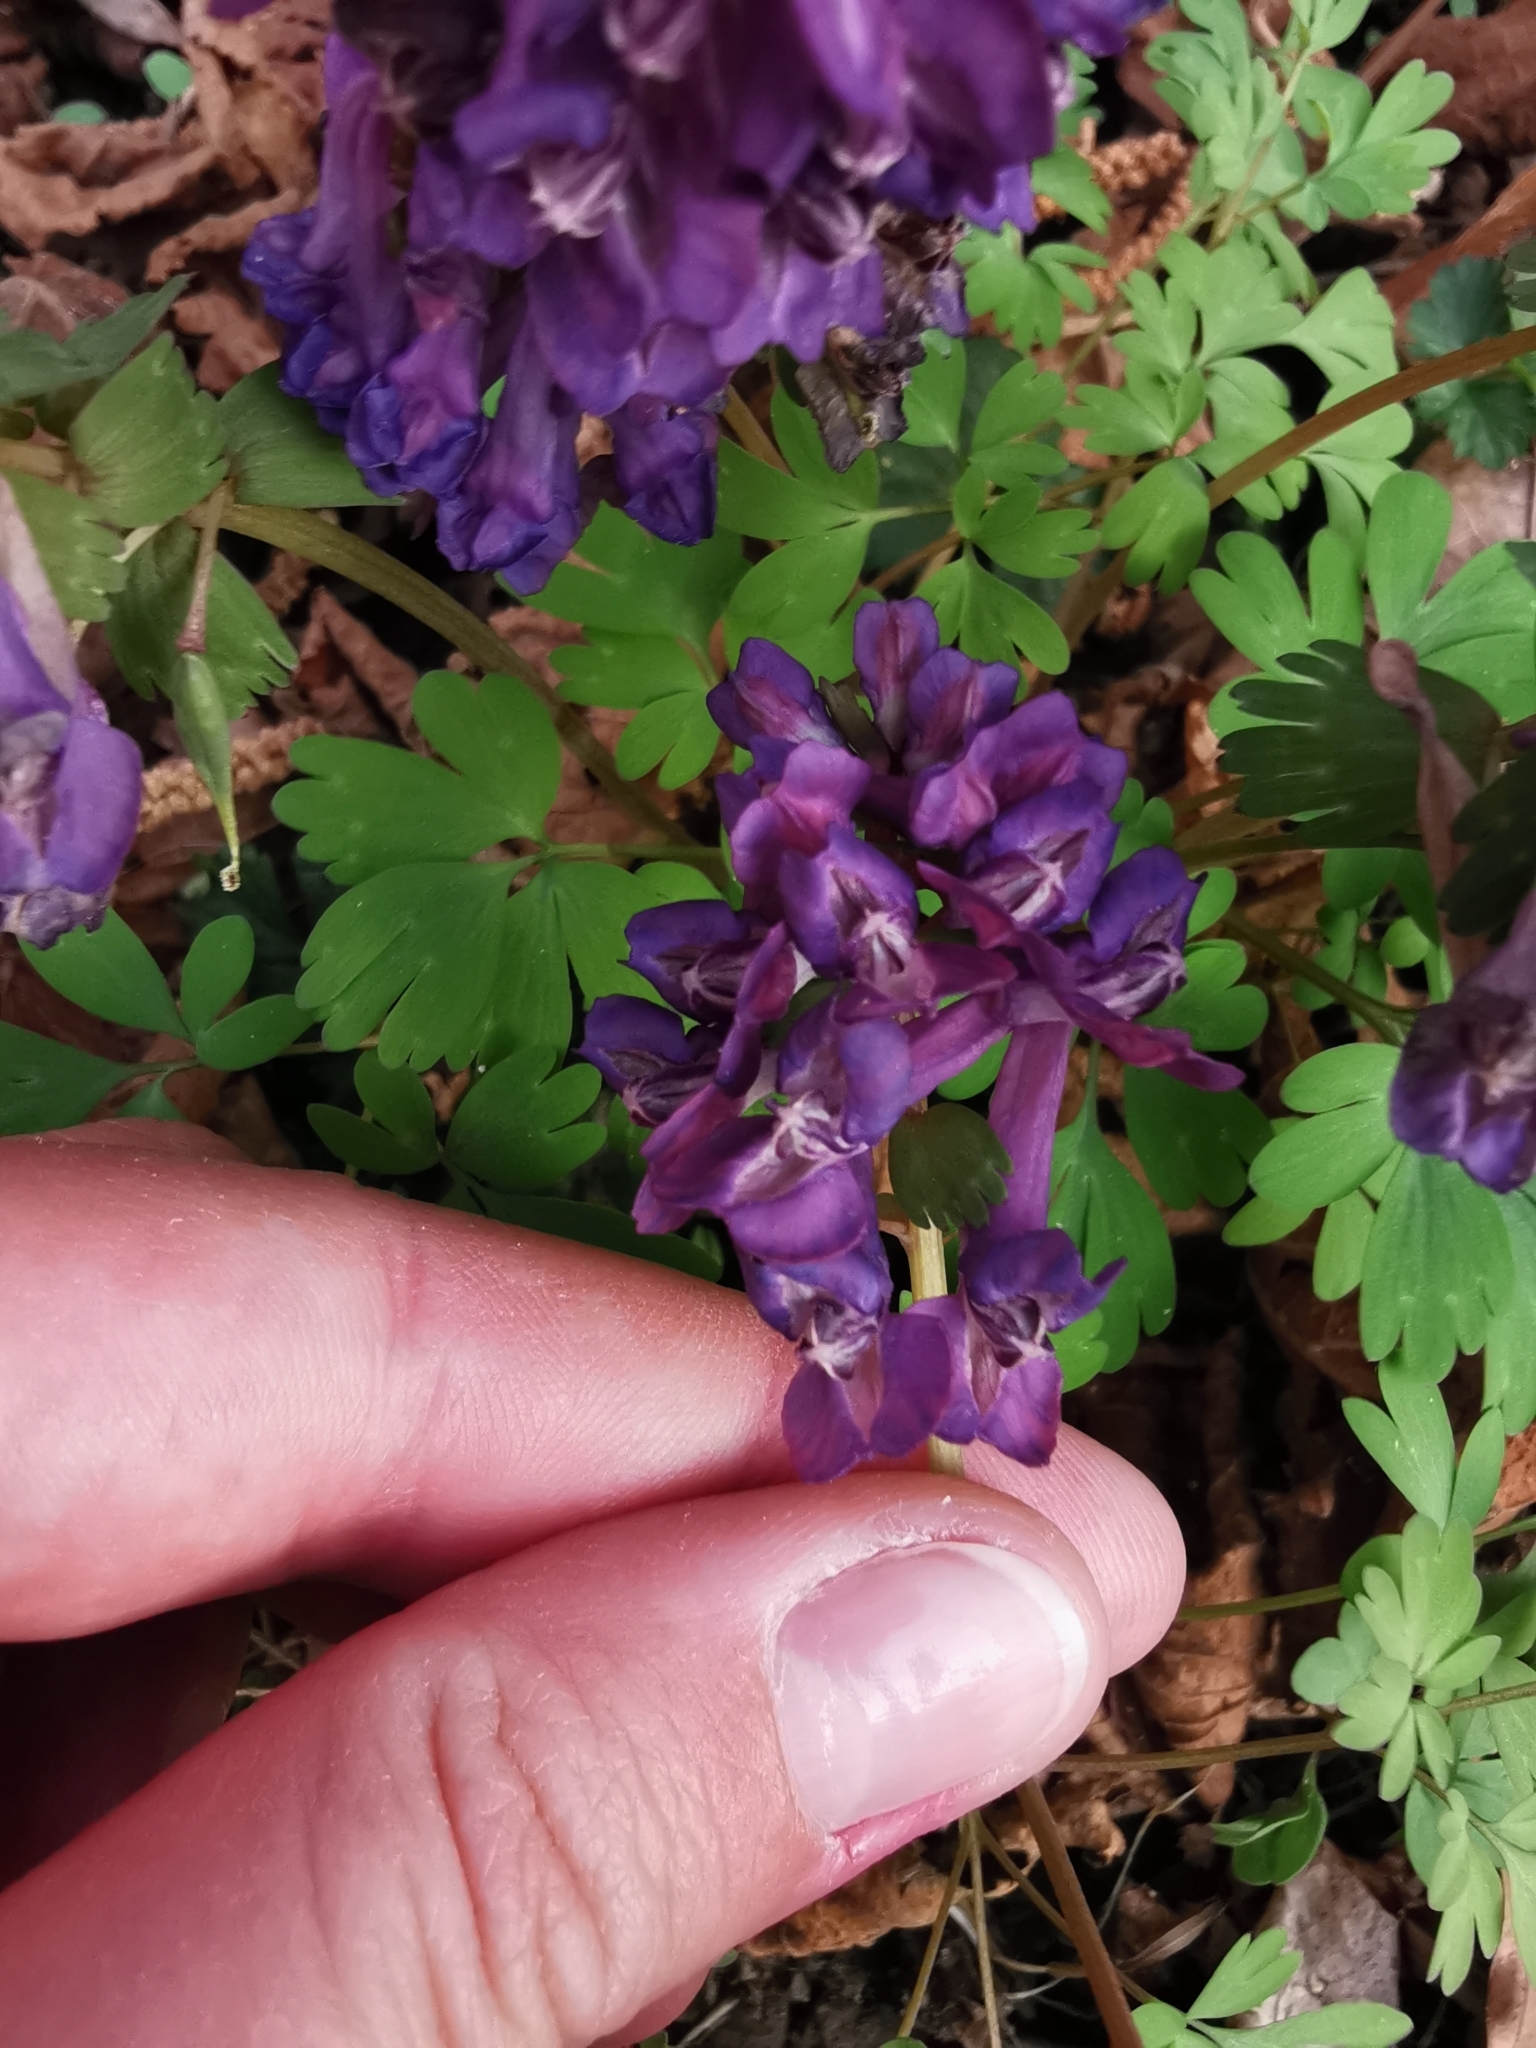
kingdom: Plantae
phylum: Tracheophyta
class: Magnoliopsida
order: Ranunculales
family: Papaveraceae
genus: Corydalis
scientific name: Corydalis solida
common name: Bird-in-a-bush
